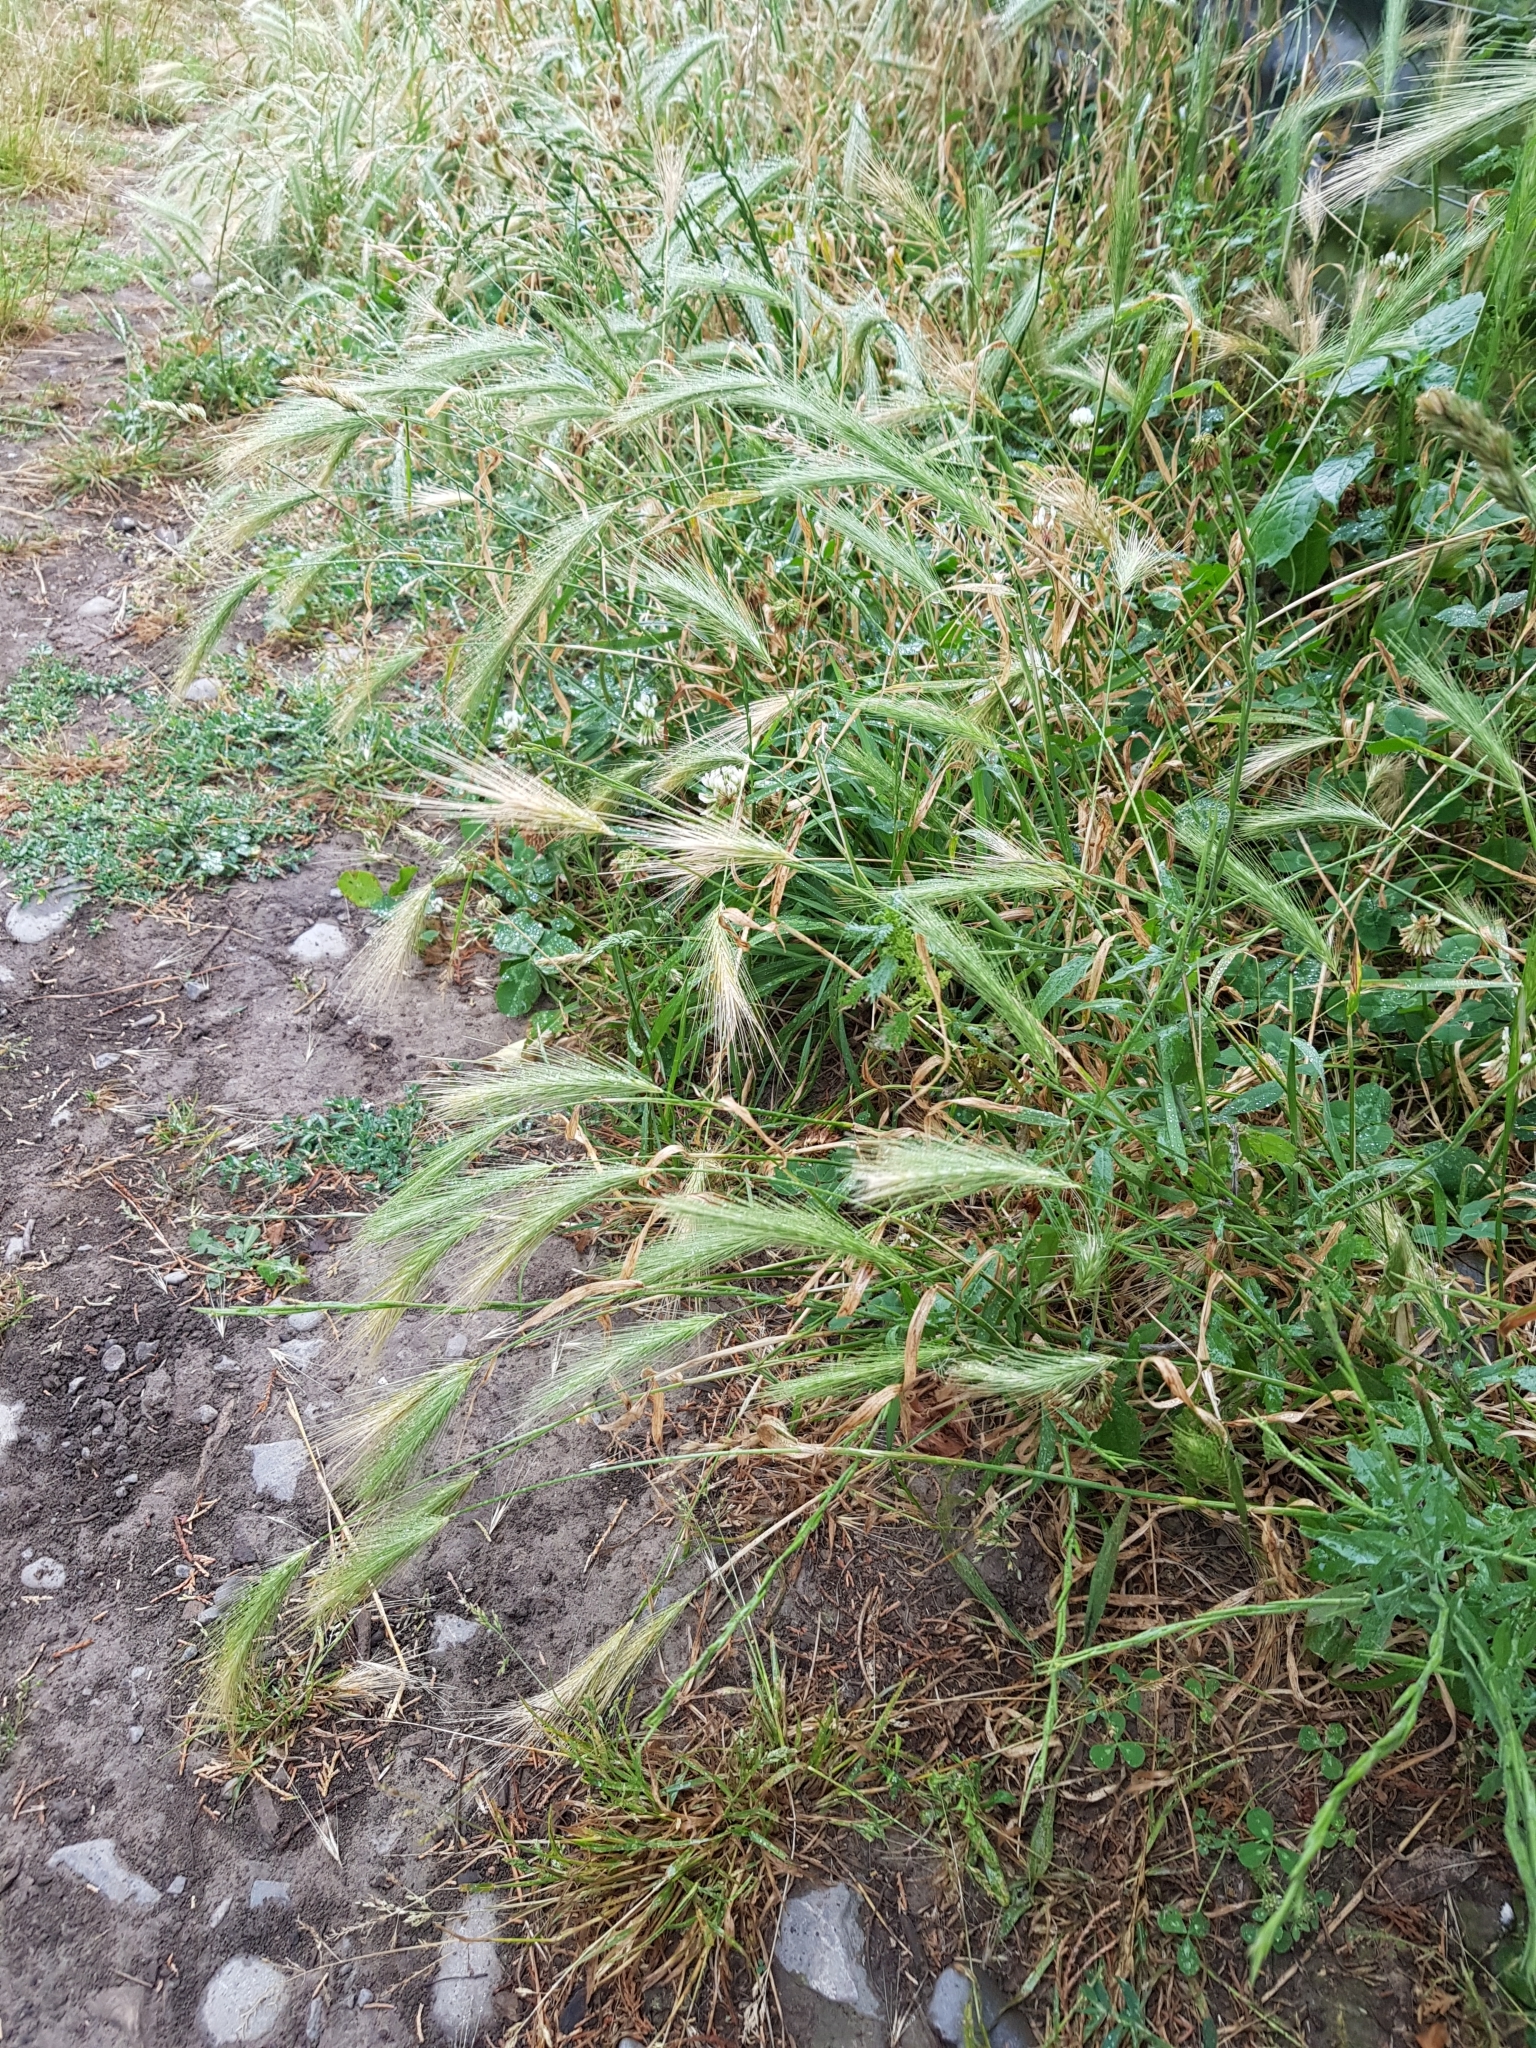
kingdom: Plantae
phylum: Tracheophyta
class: Liliopsida
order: Poales
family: Poaceae
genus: Hordeum
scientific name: Hordeum murinum
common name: Wall barley
